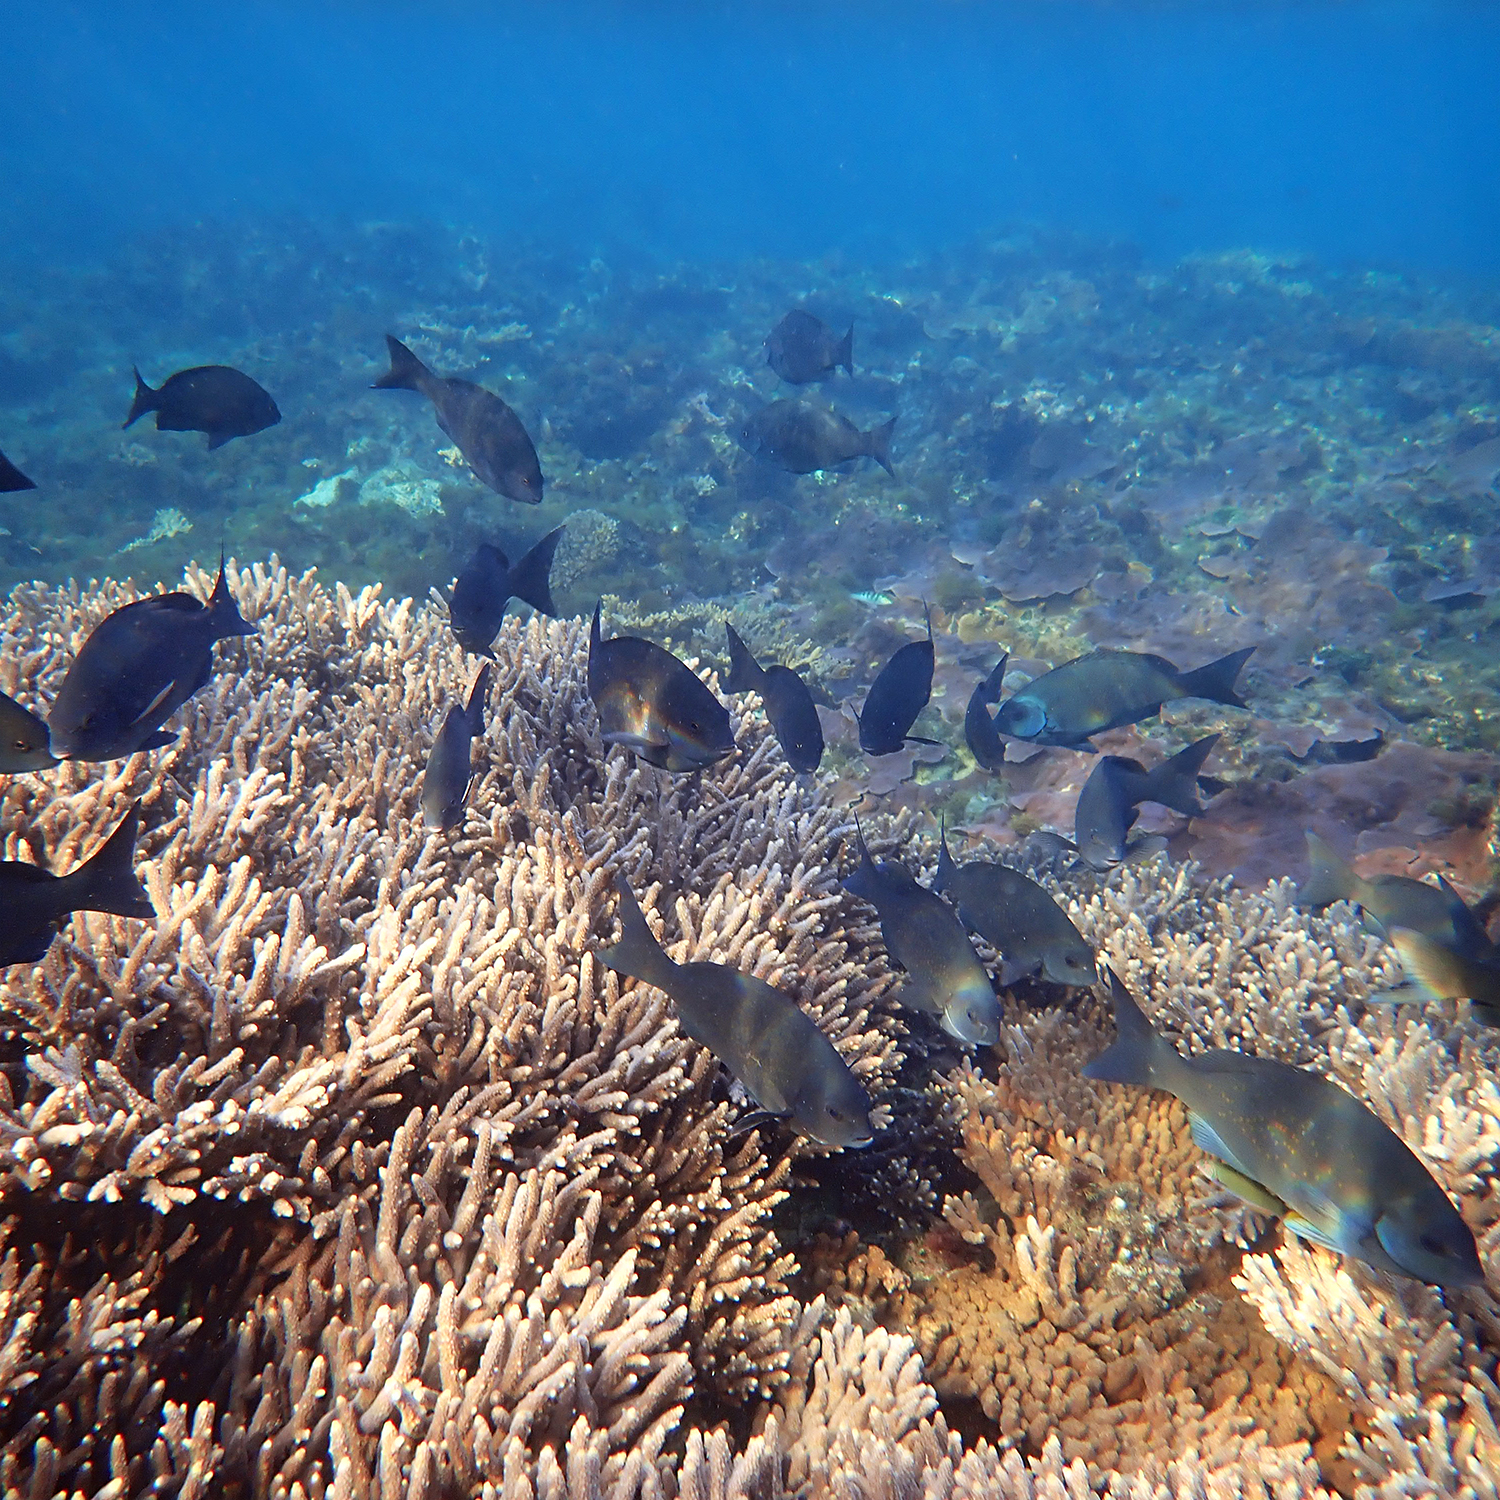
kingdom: Animalia
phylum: Chordata
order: Perciformes
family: Kyphosidae
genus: Girella
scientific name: Girella cyanea
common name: Bluefish
